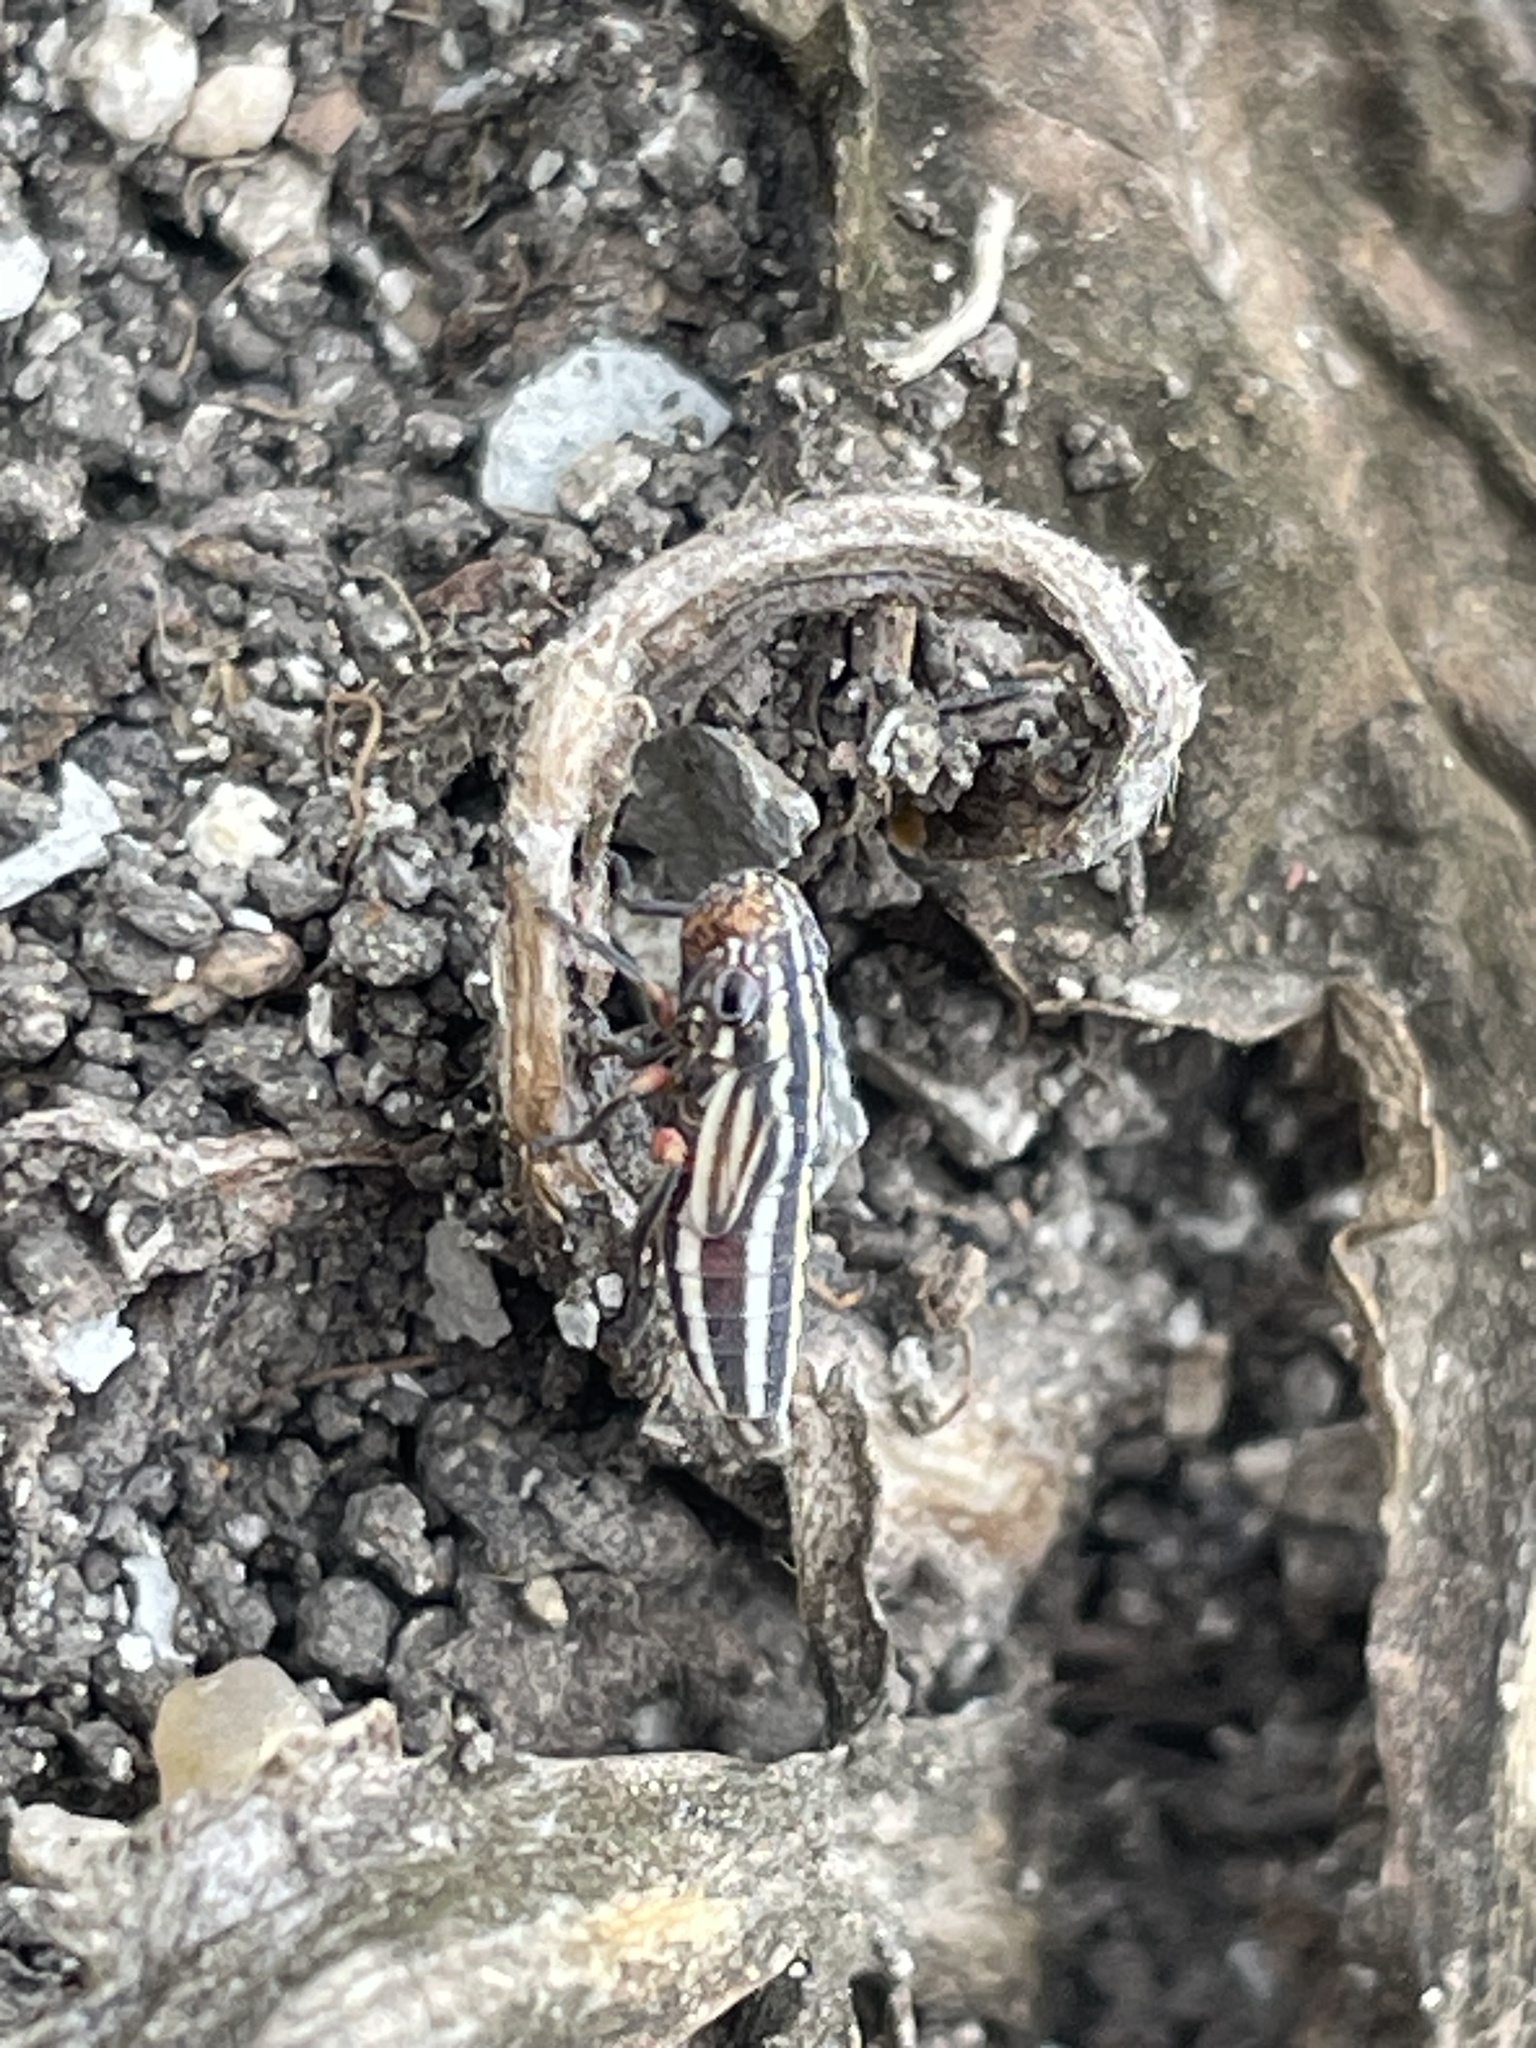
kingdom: Animalia
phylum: Arthropoda
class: Insecta
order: Hemiptera
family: Cicadellidae
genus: Cuerna
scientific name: Cuerna costalis
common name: Lateral-lined sharpshooter
